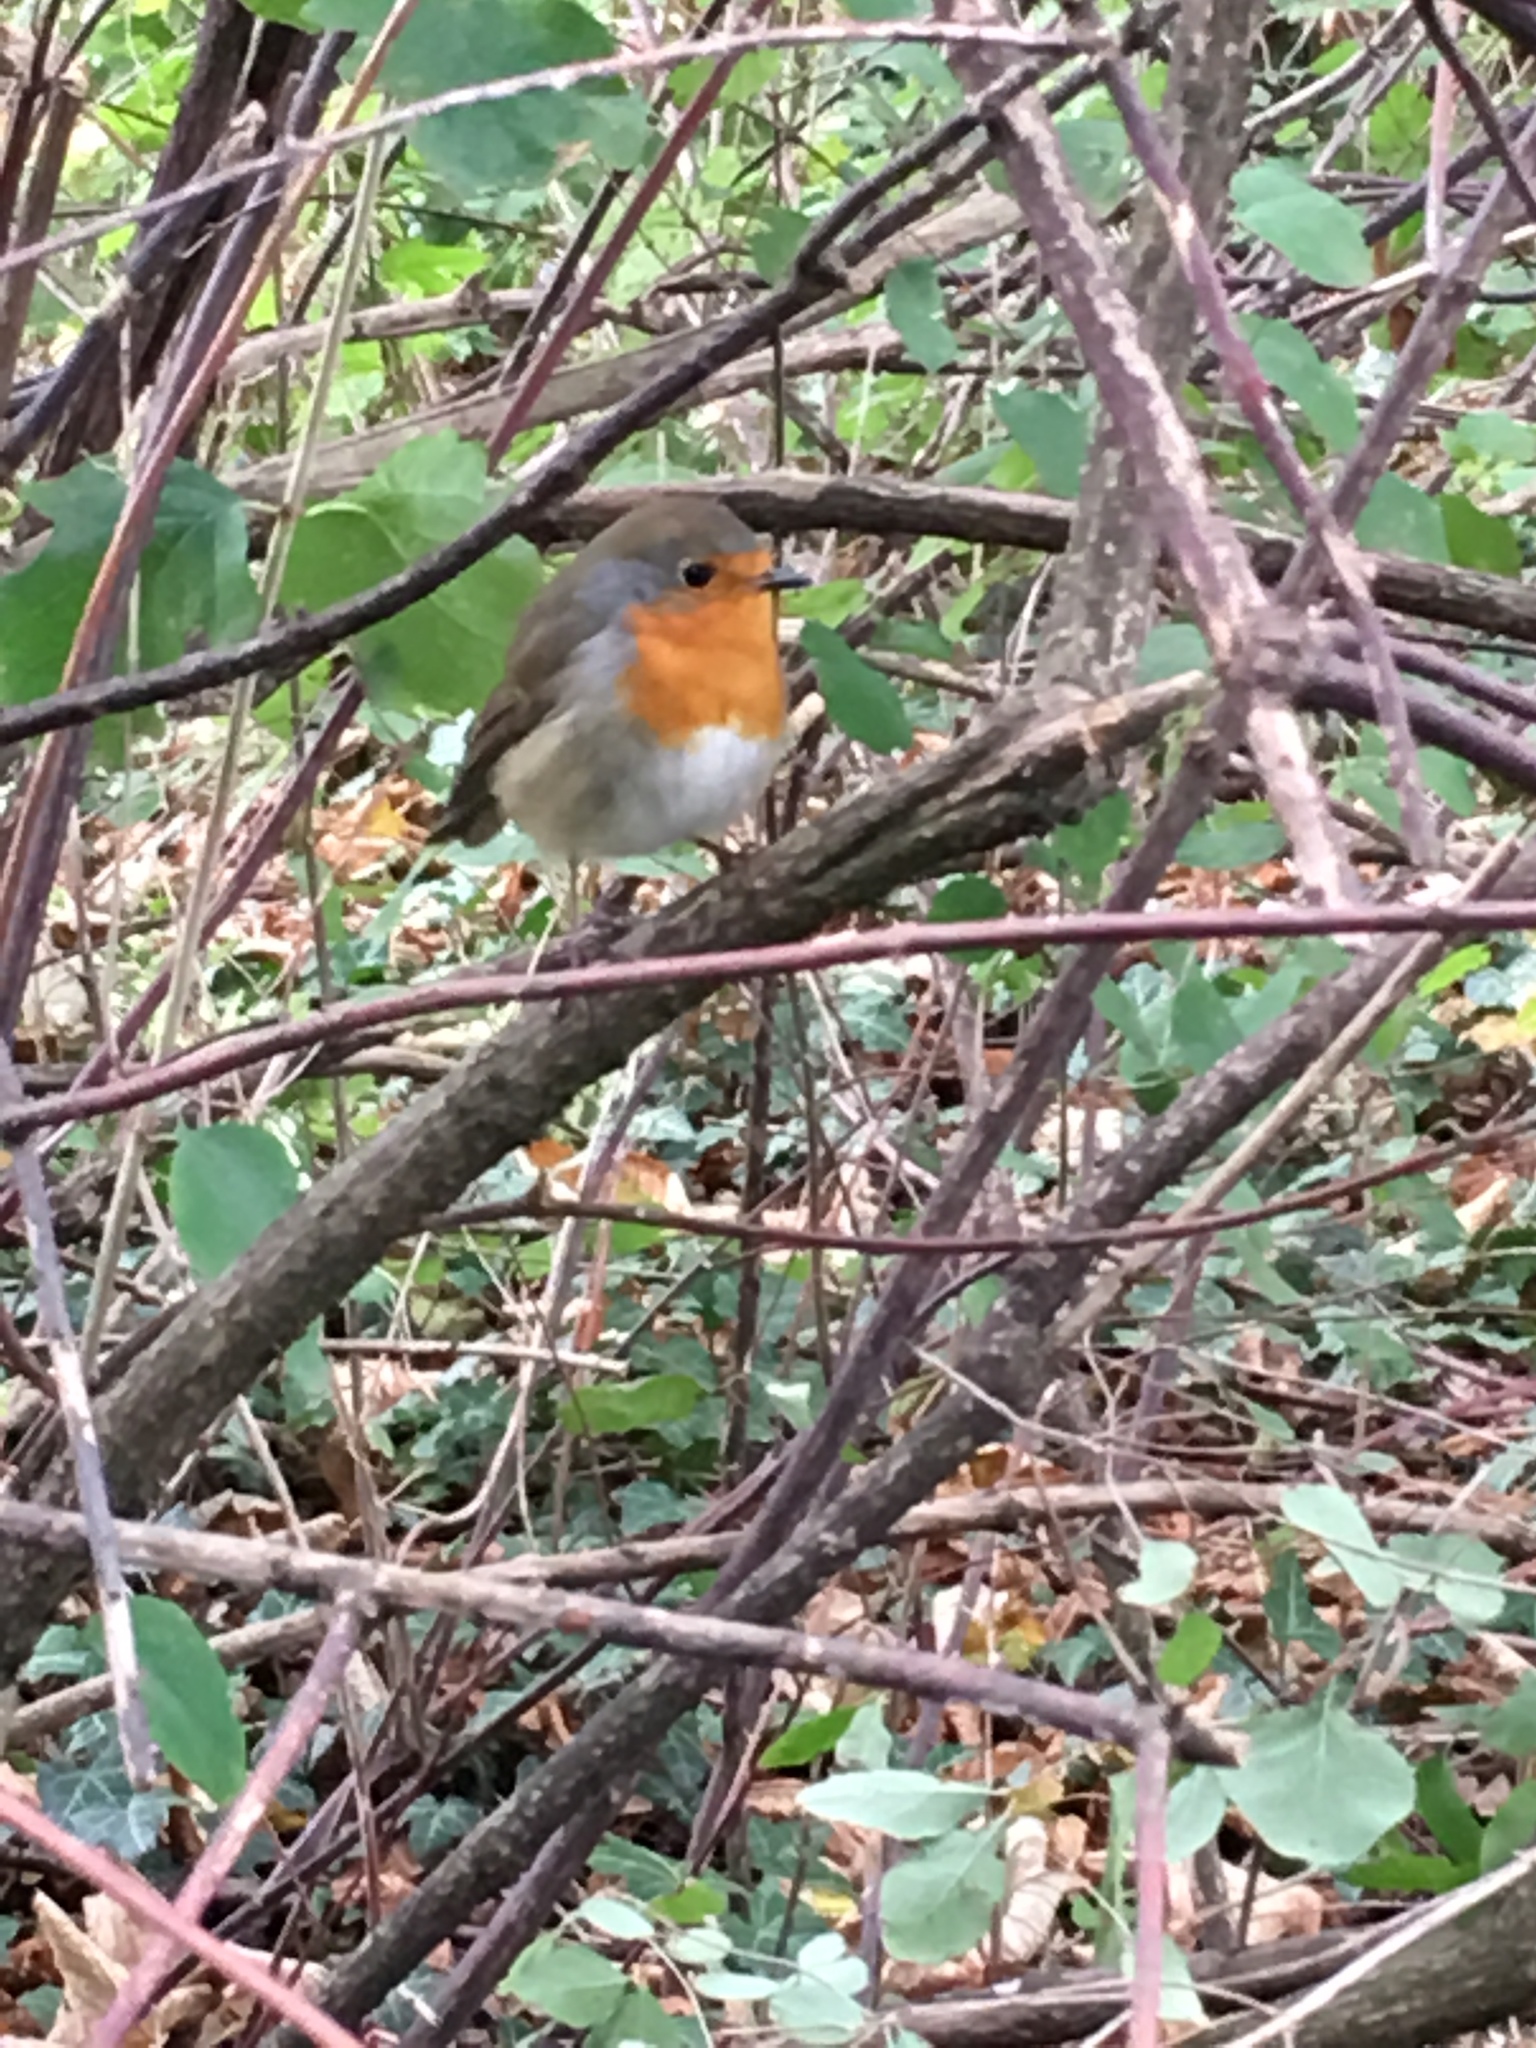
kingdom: Animalia
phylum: Chordata
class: Aves
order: Passeriformes
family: Muscicapidae
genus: Erithacus
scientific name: Erithacus rubecula
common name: European robin
